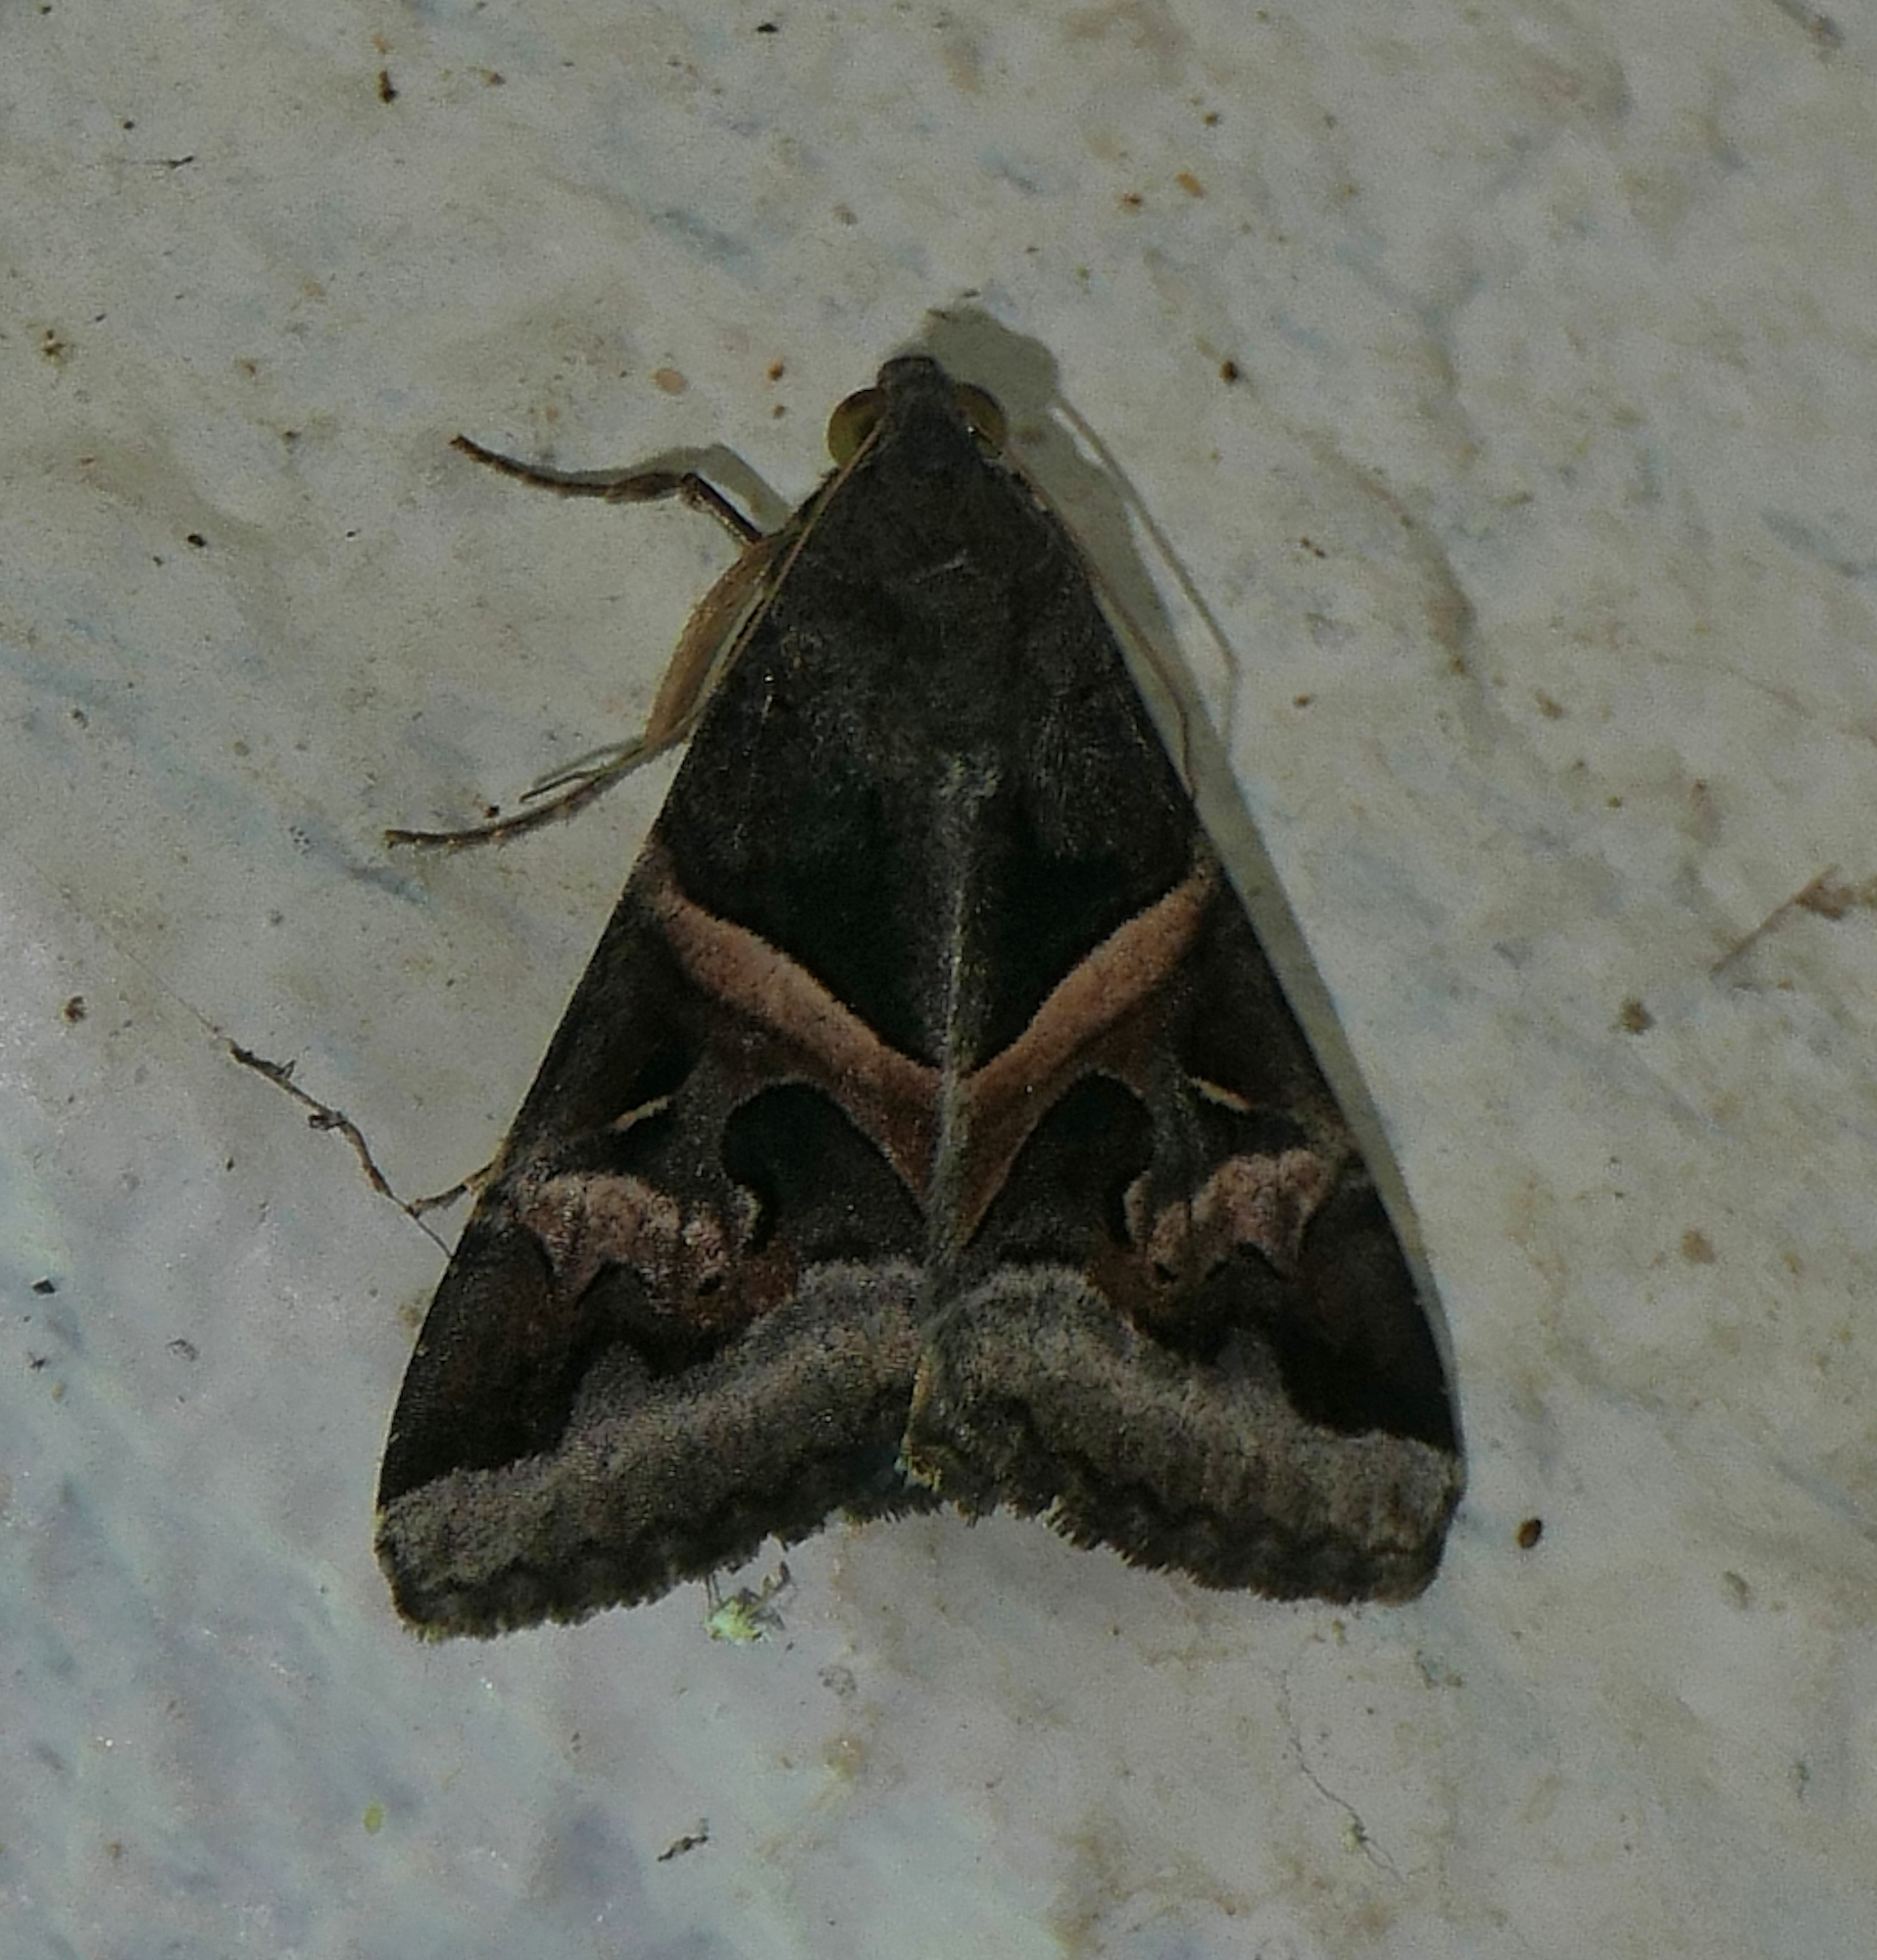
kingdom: Animalia
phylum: Arthropoda
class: Insecta
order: Lepidoptera
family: Erebidae
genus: Melipotis
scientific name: Melipotis indomita
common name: Moth
